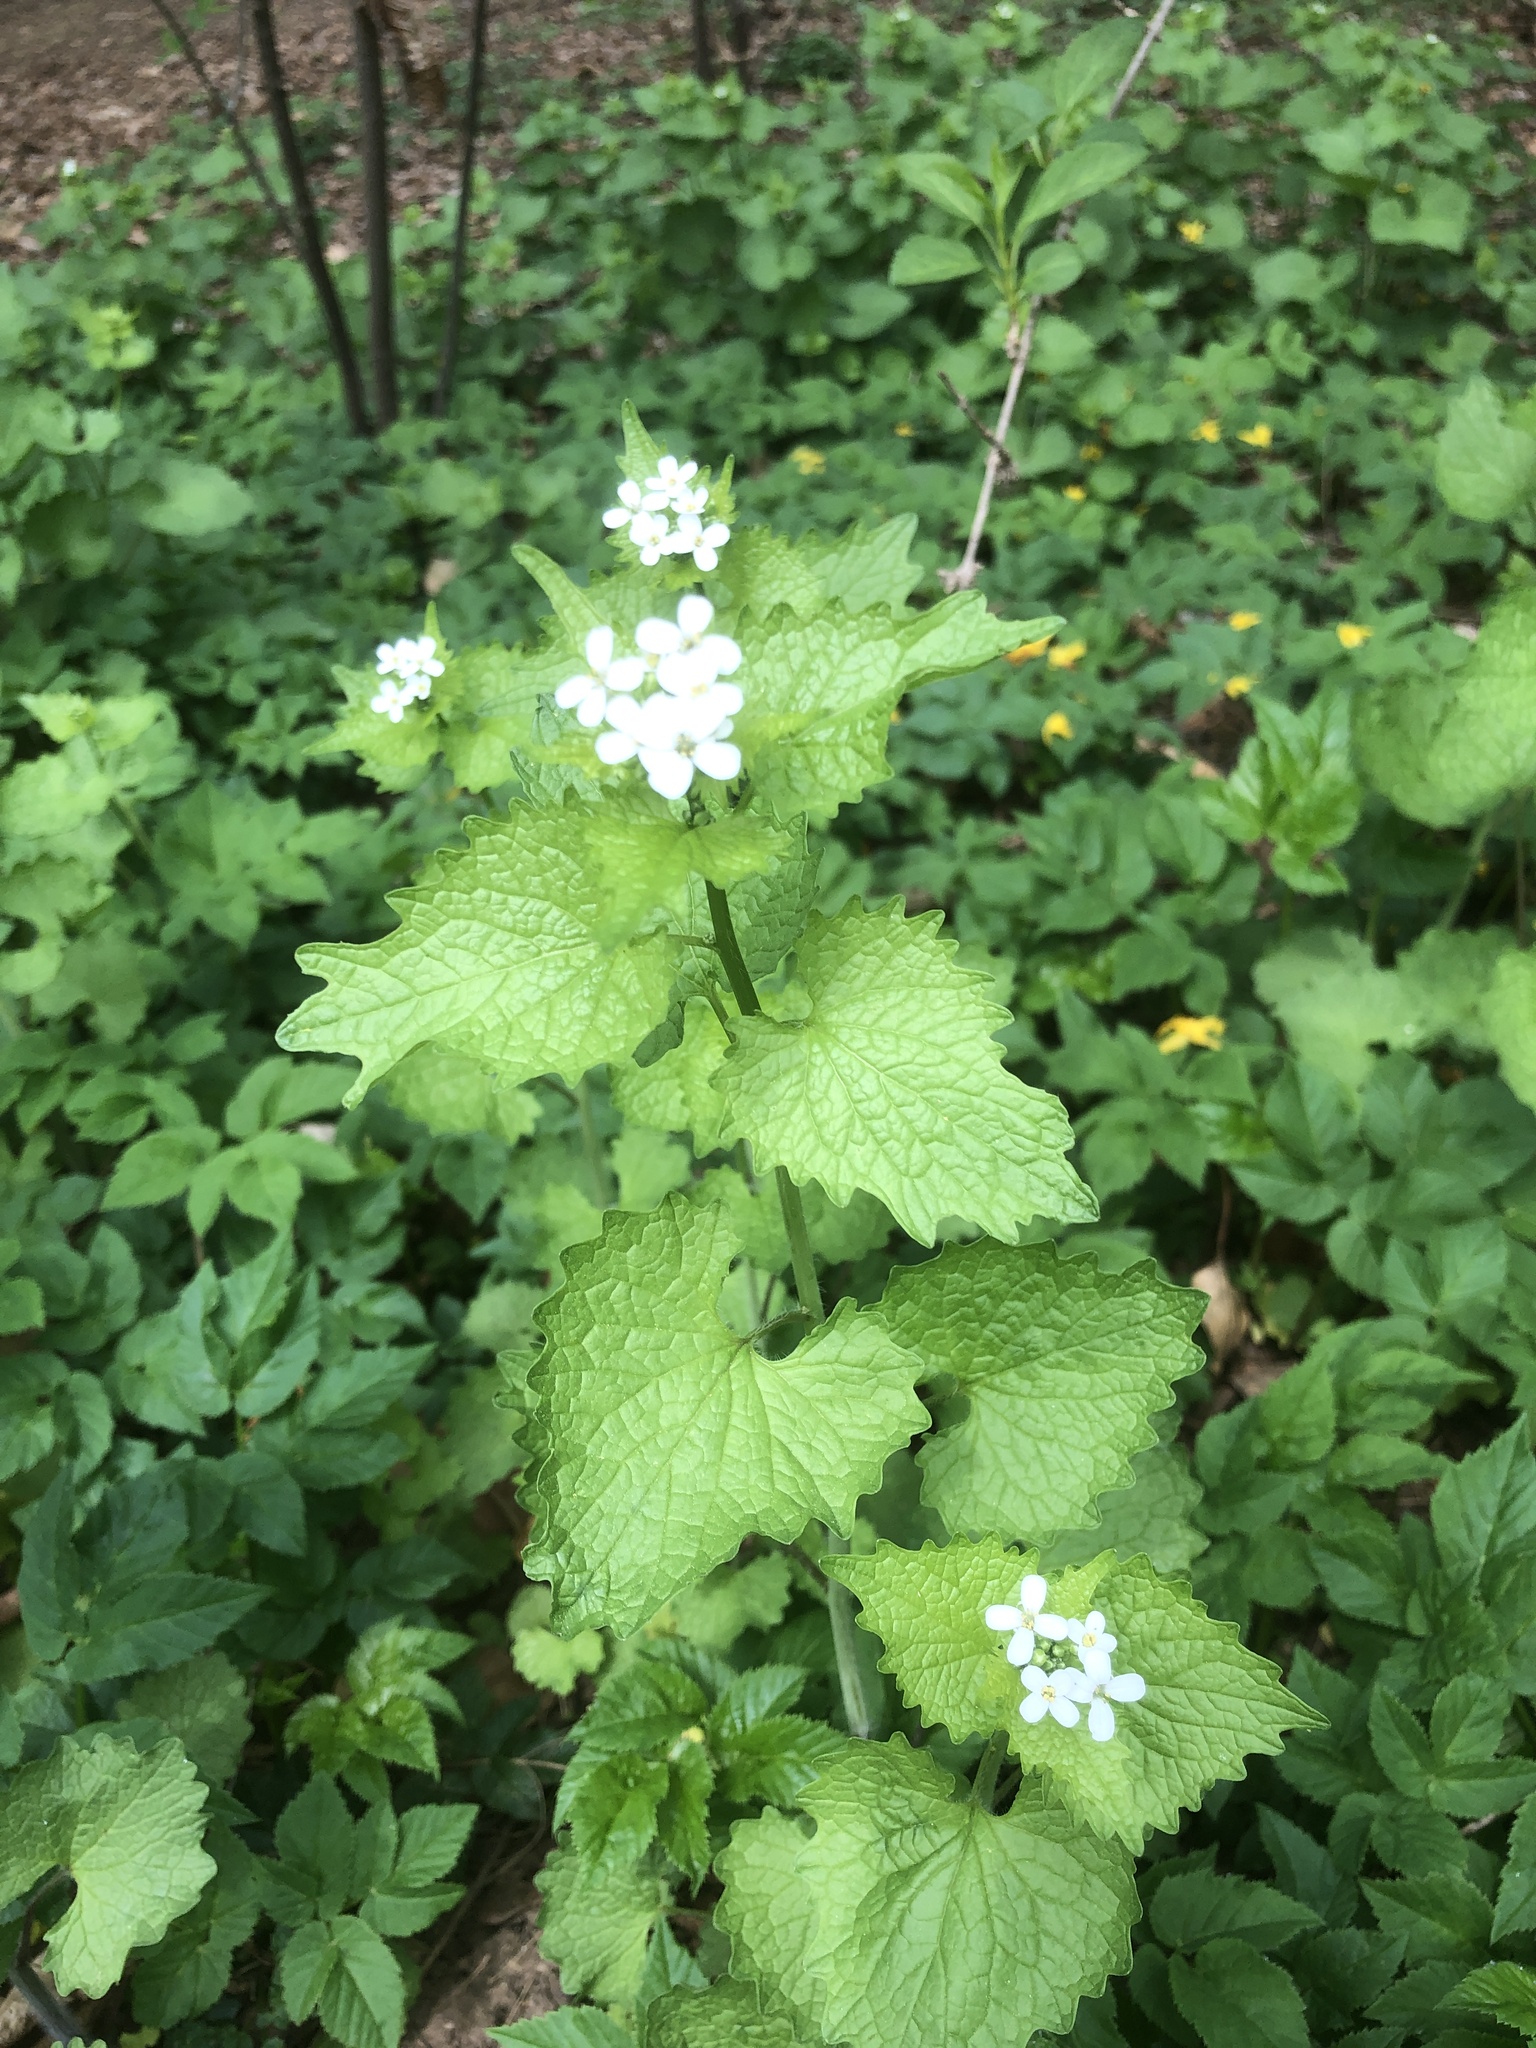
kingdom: Plantae
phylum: Tracheophyta
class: Magnoliopsida
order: Brassicales
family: Brassicaceae
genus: Alliaria
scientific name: Alliaria petiolata
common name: Garlic mustard
